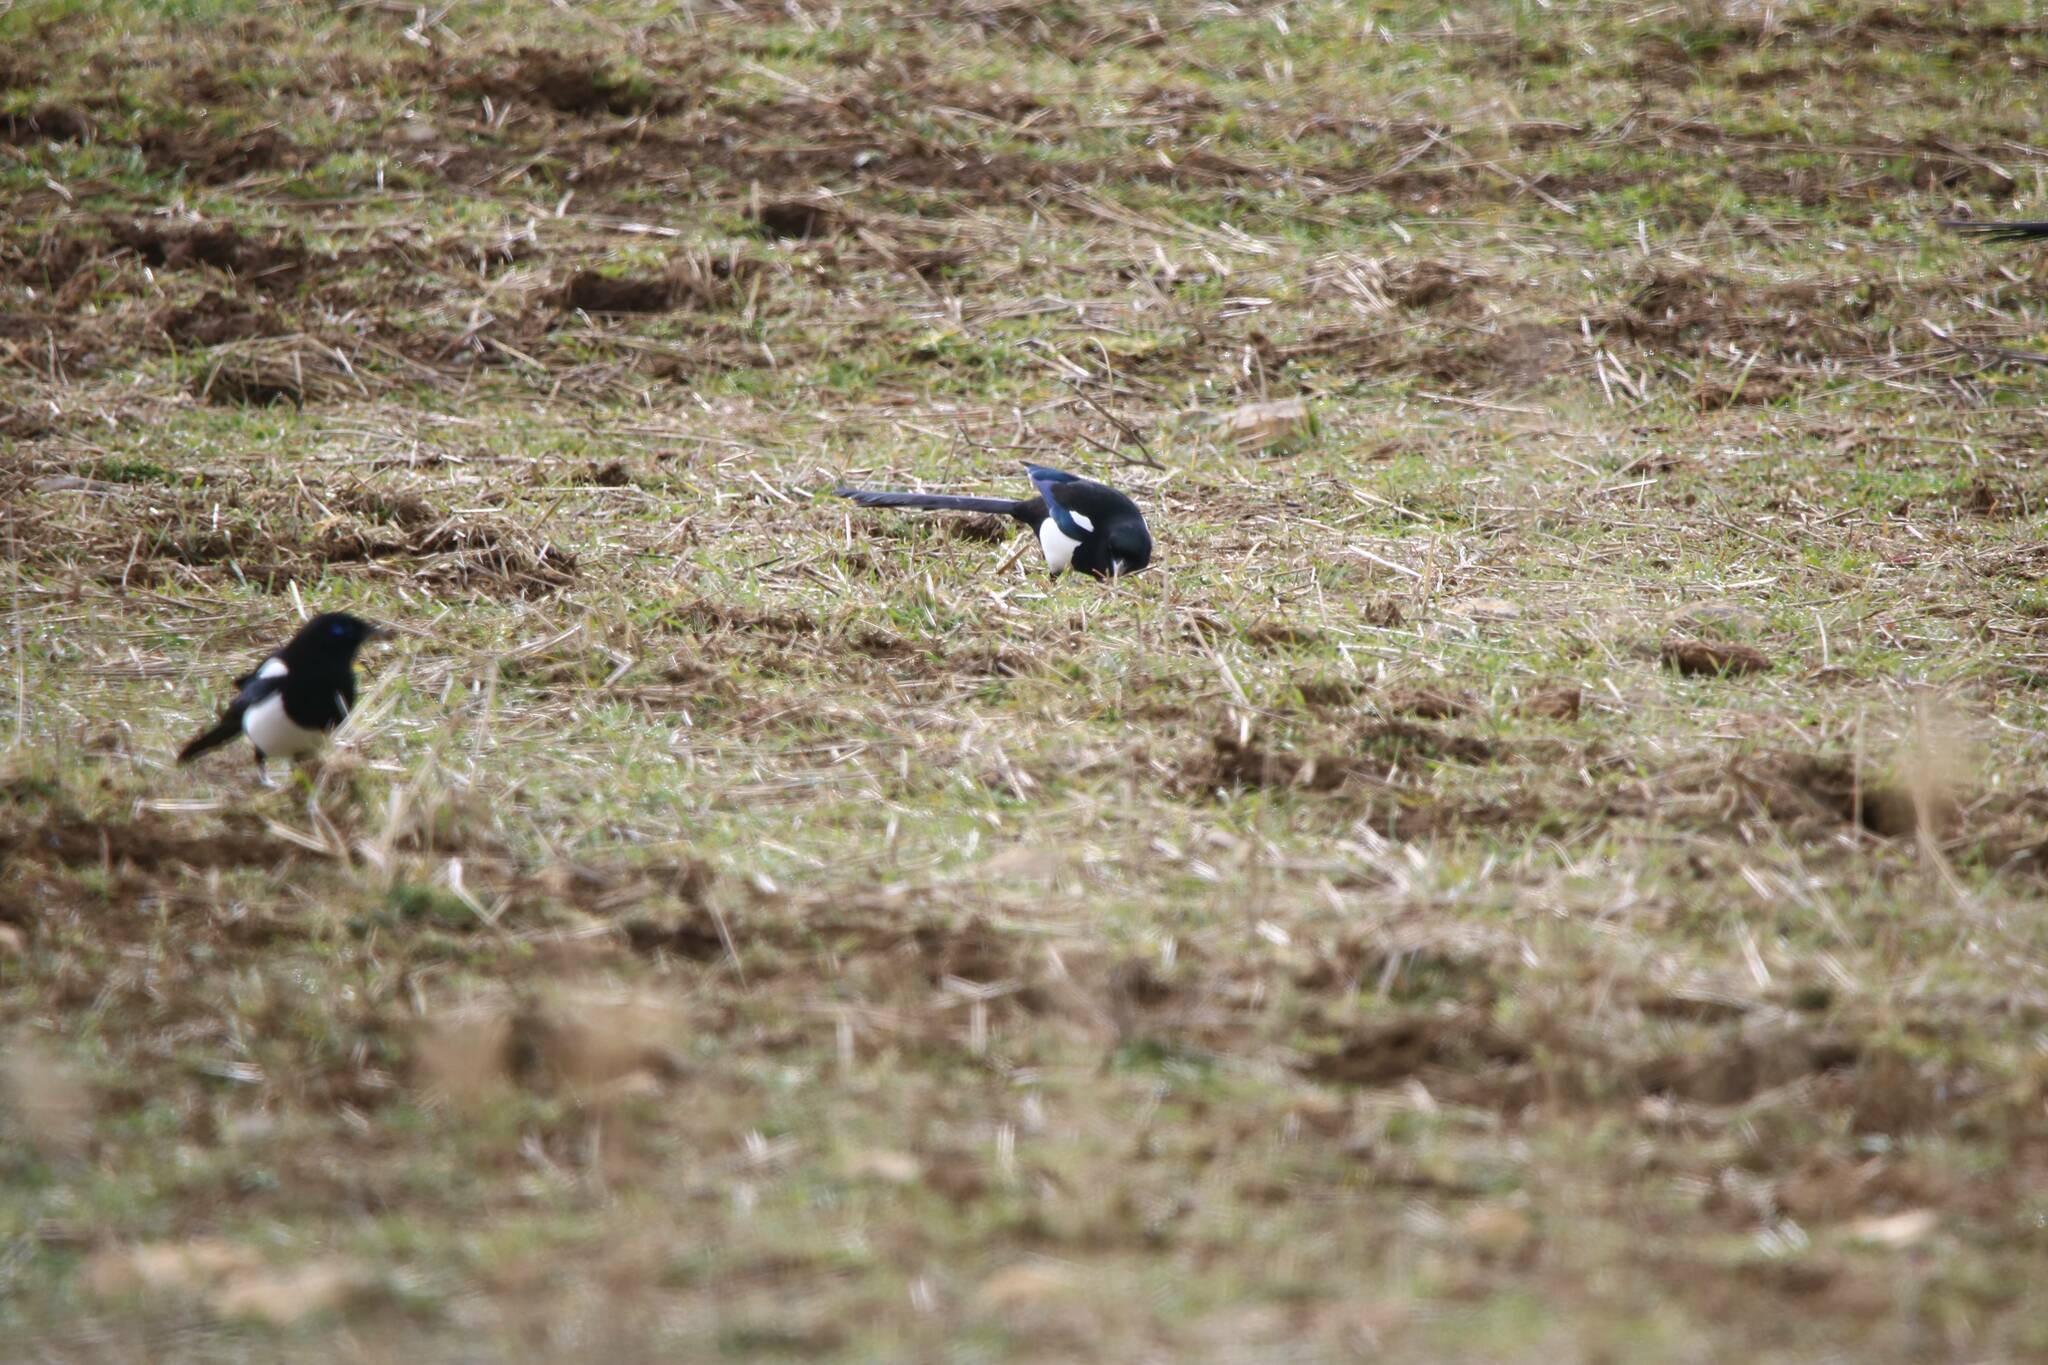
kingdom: Animalia
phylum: Chordata
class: Aves
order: Passeriformes
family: Corvidae
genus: Pica
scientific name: Pica mauritanica
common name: Maghreb magpie
